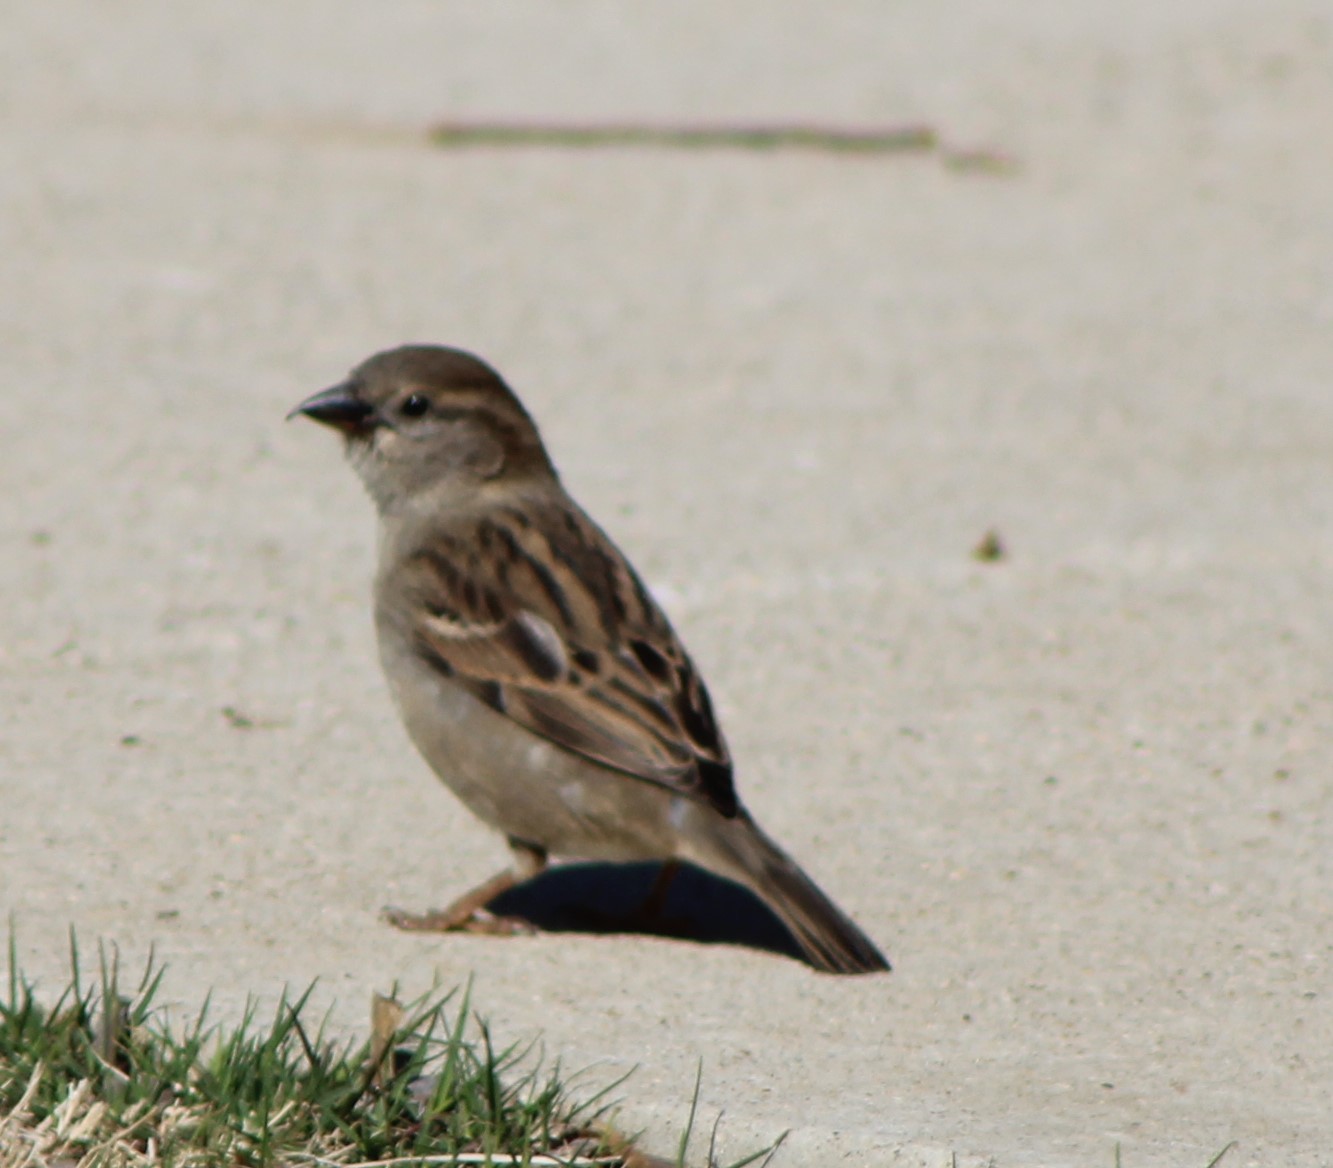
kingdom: Animalia
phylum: Chordata
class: Aves
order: Passeriformes
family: Passeridae
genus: Passer
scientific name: Passer domesticus
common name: House sparrow
